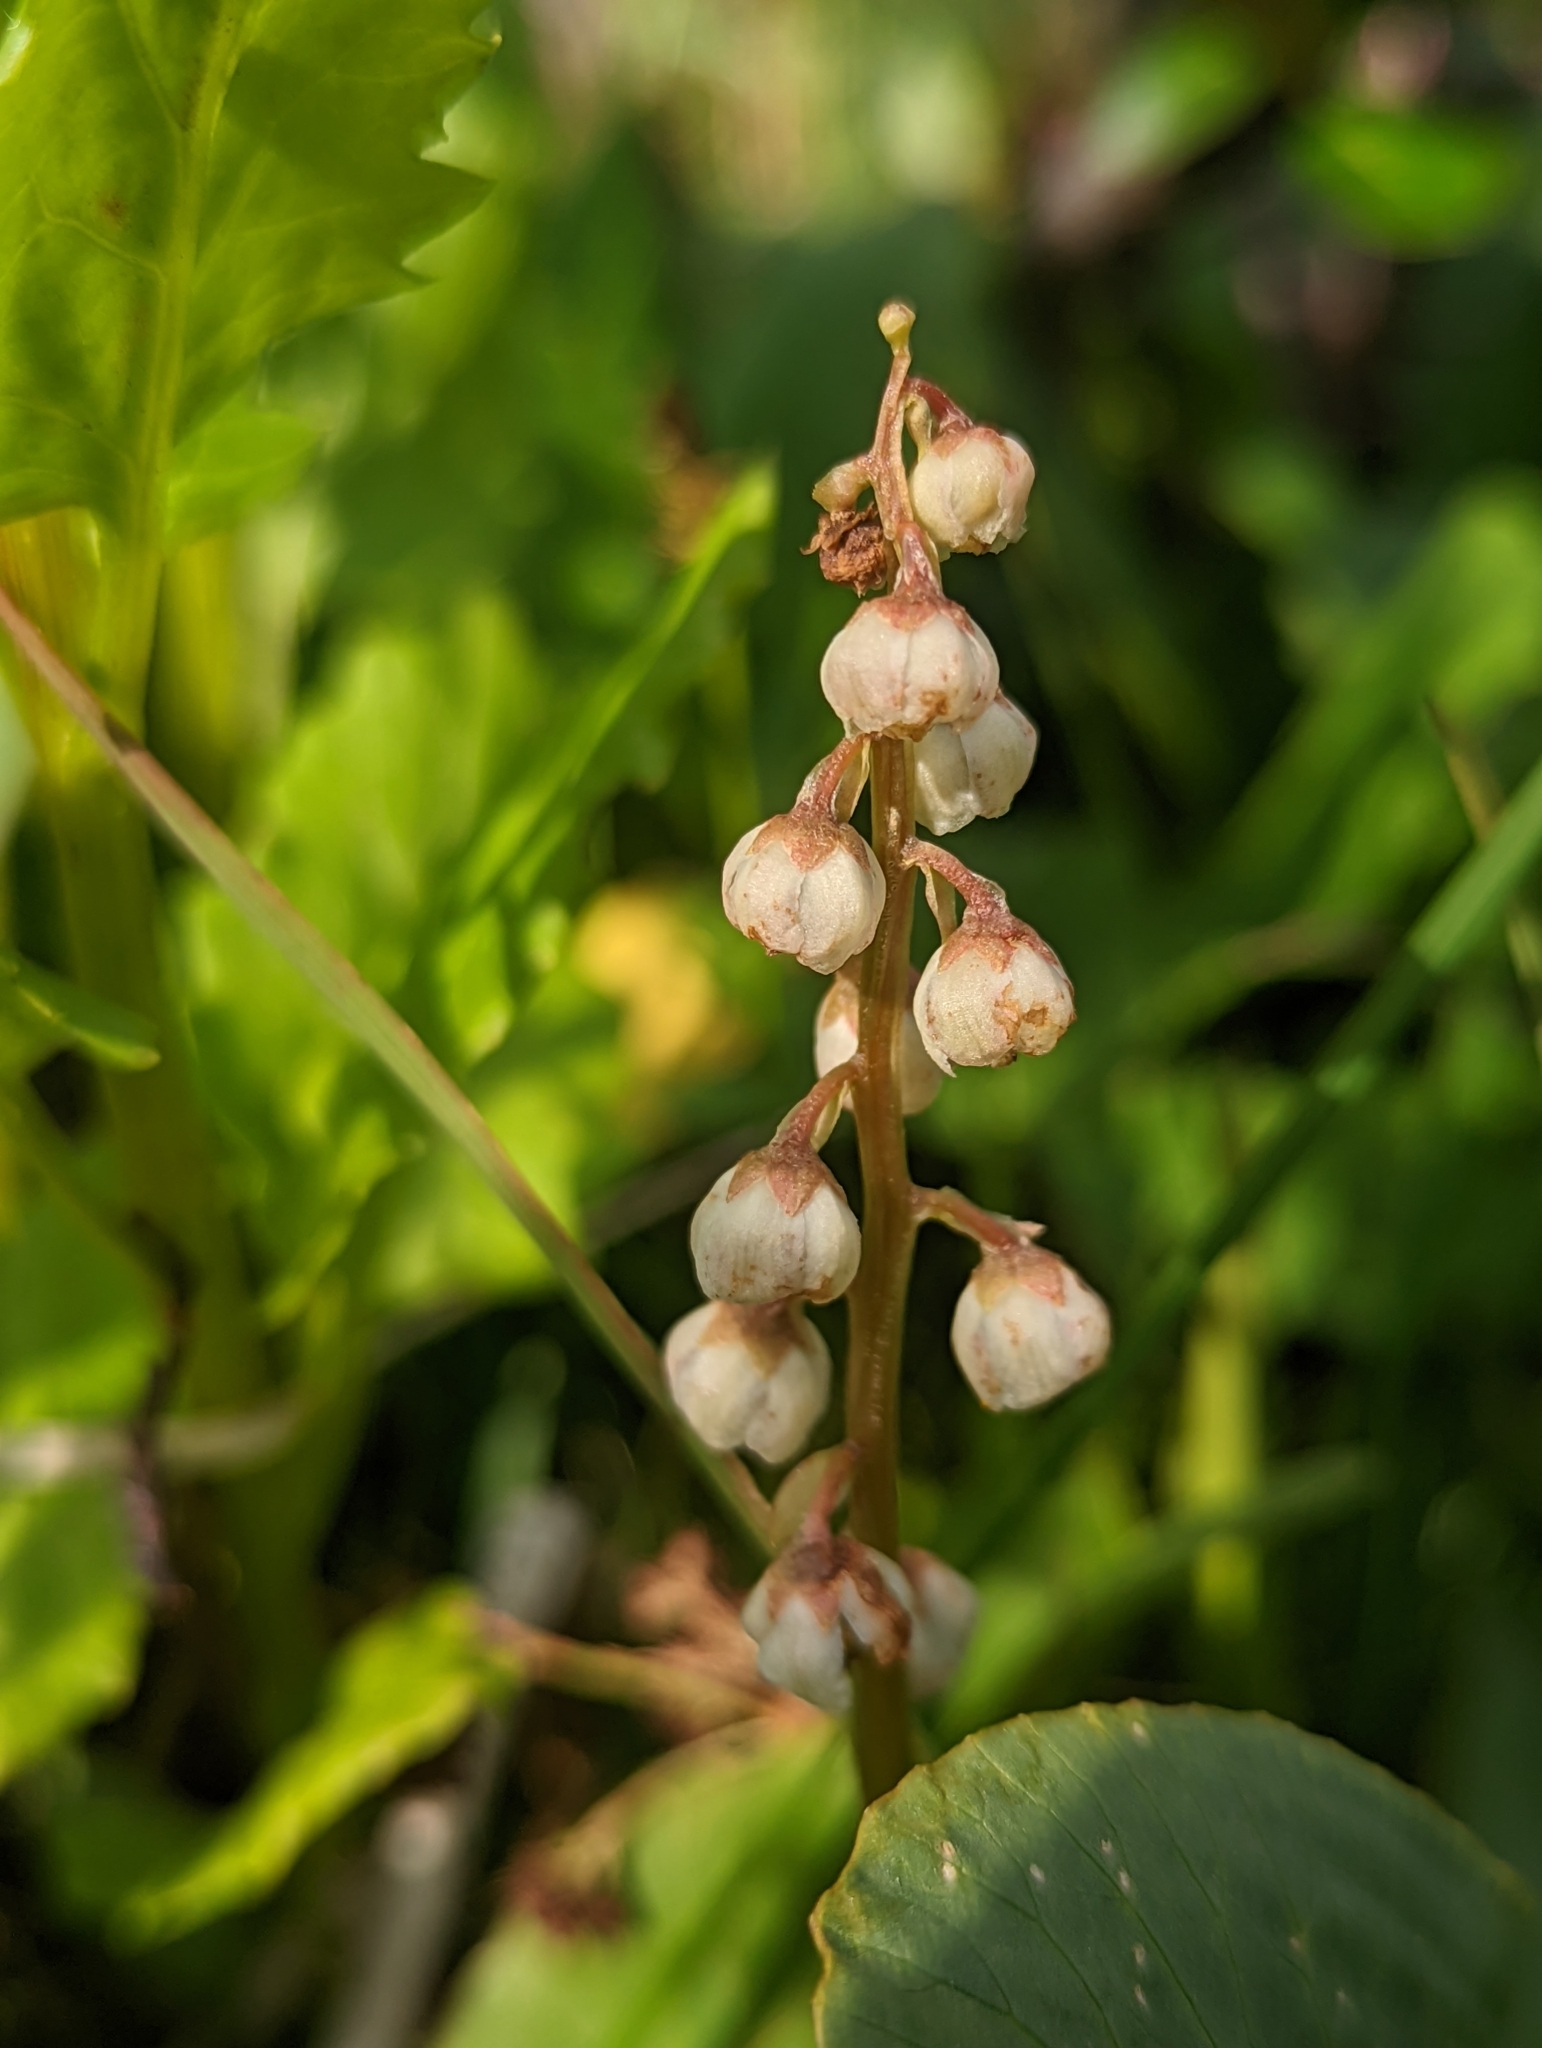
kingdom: Plantae
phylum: Tracheophyta
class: Magnoliopsida
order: Ericales
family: Ericaceae
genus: Pyrola
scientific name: Pyrola minor
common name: Common wintergreen
